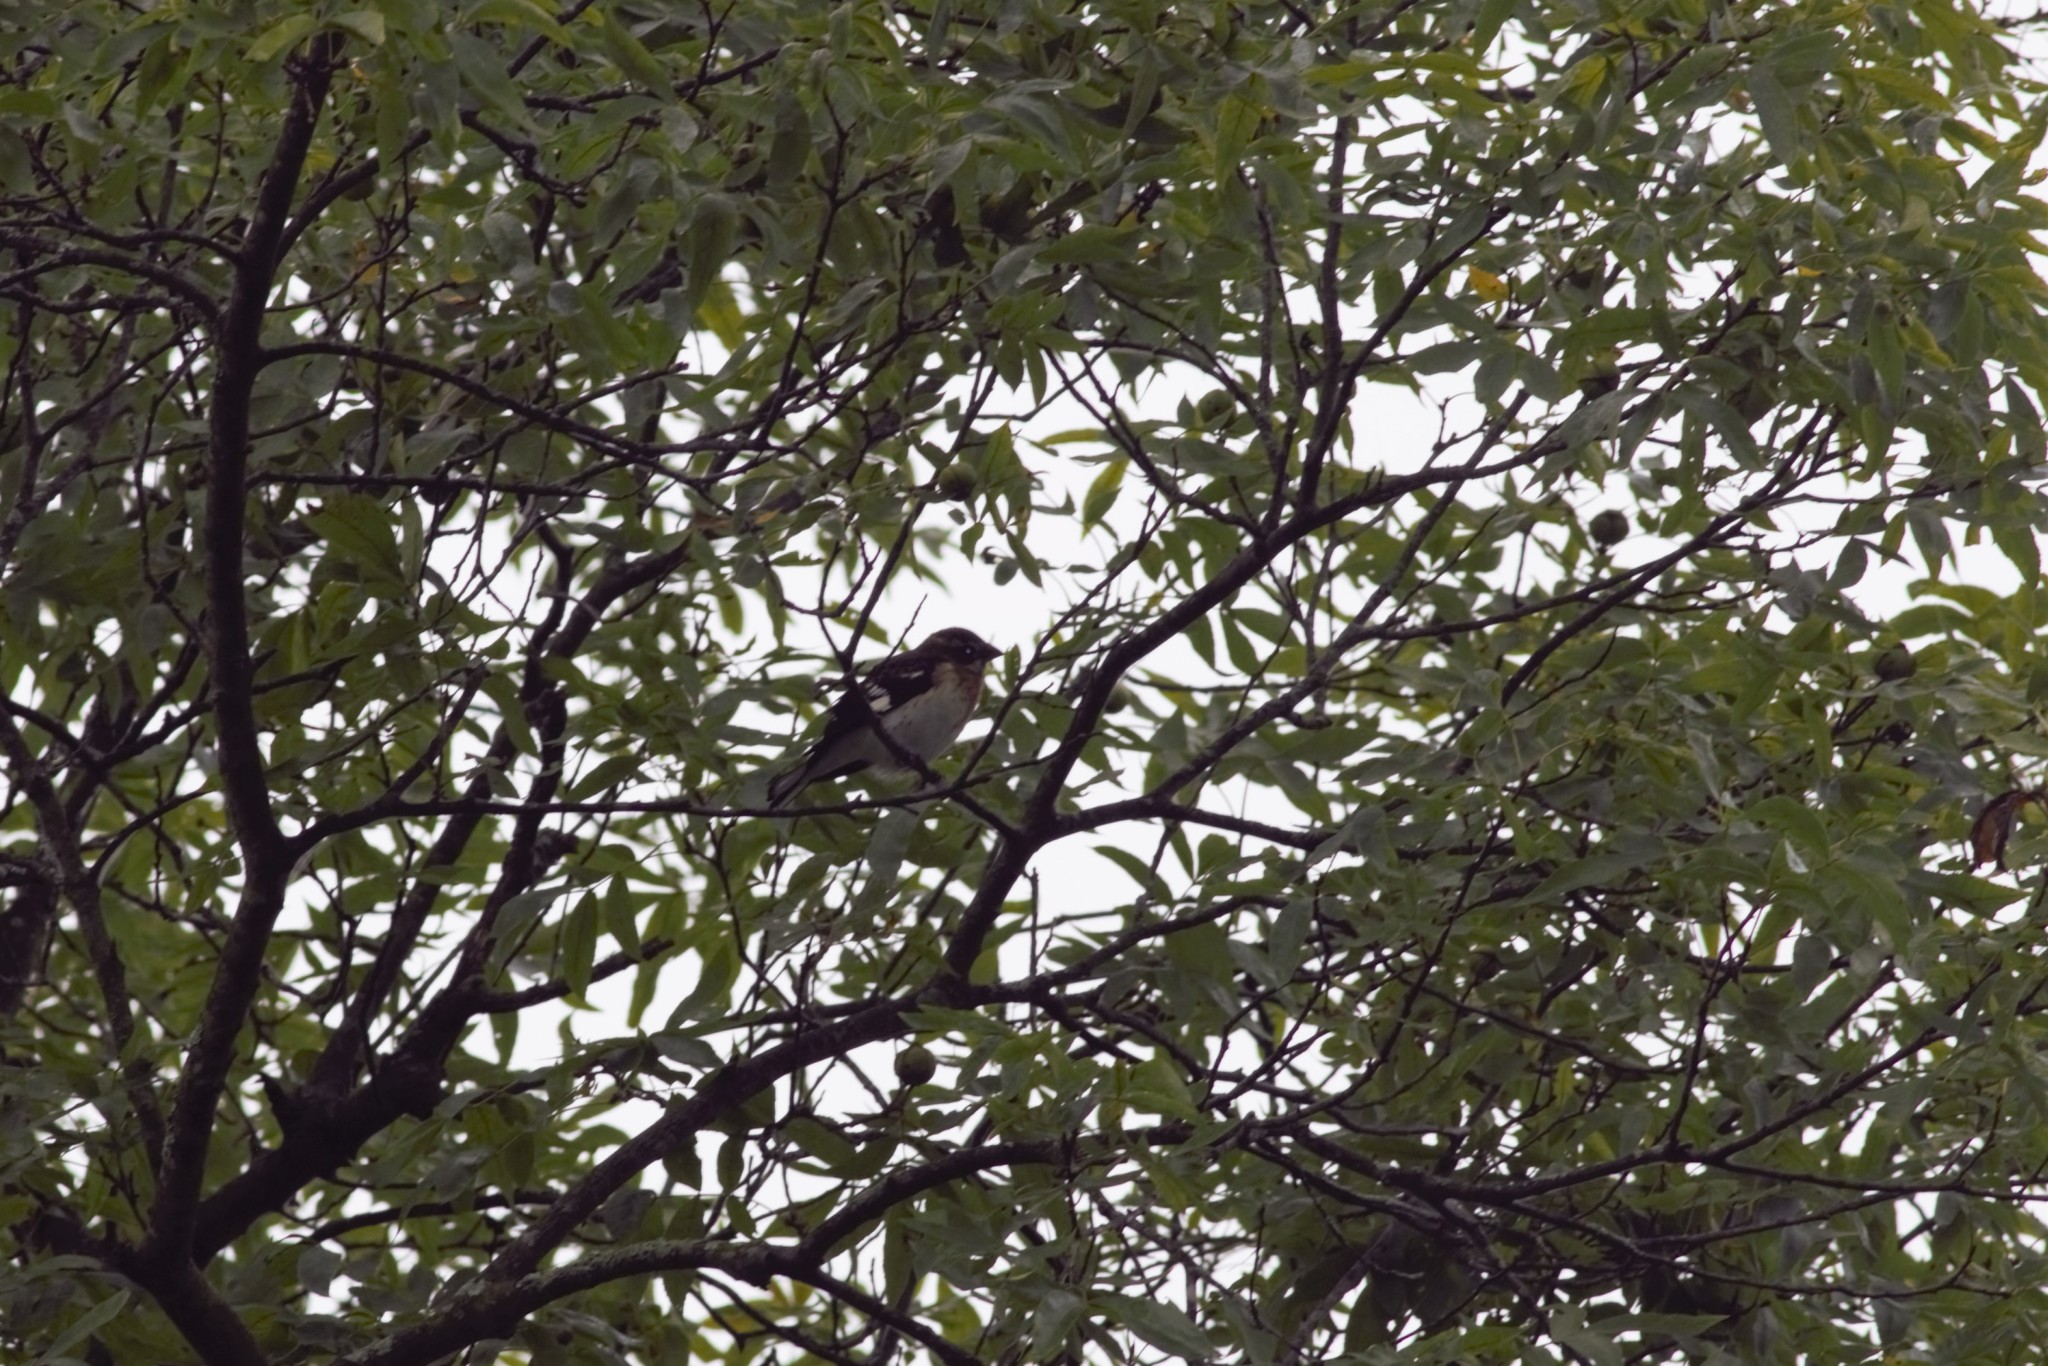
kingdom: Animalia
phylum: Chordata
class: Aves
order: Passeriformes
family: Cardinalidae
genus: Pheucticus
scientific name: Pheucticus ludovicianus
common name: Rose-breasted grosbeak
